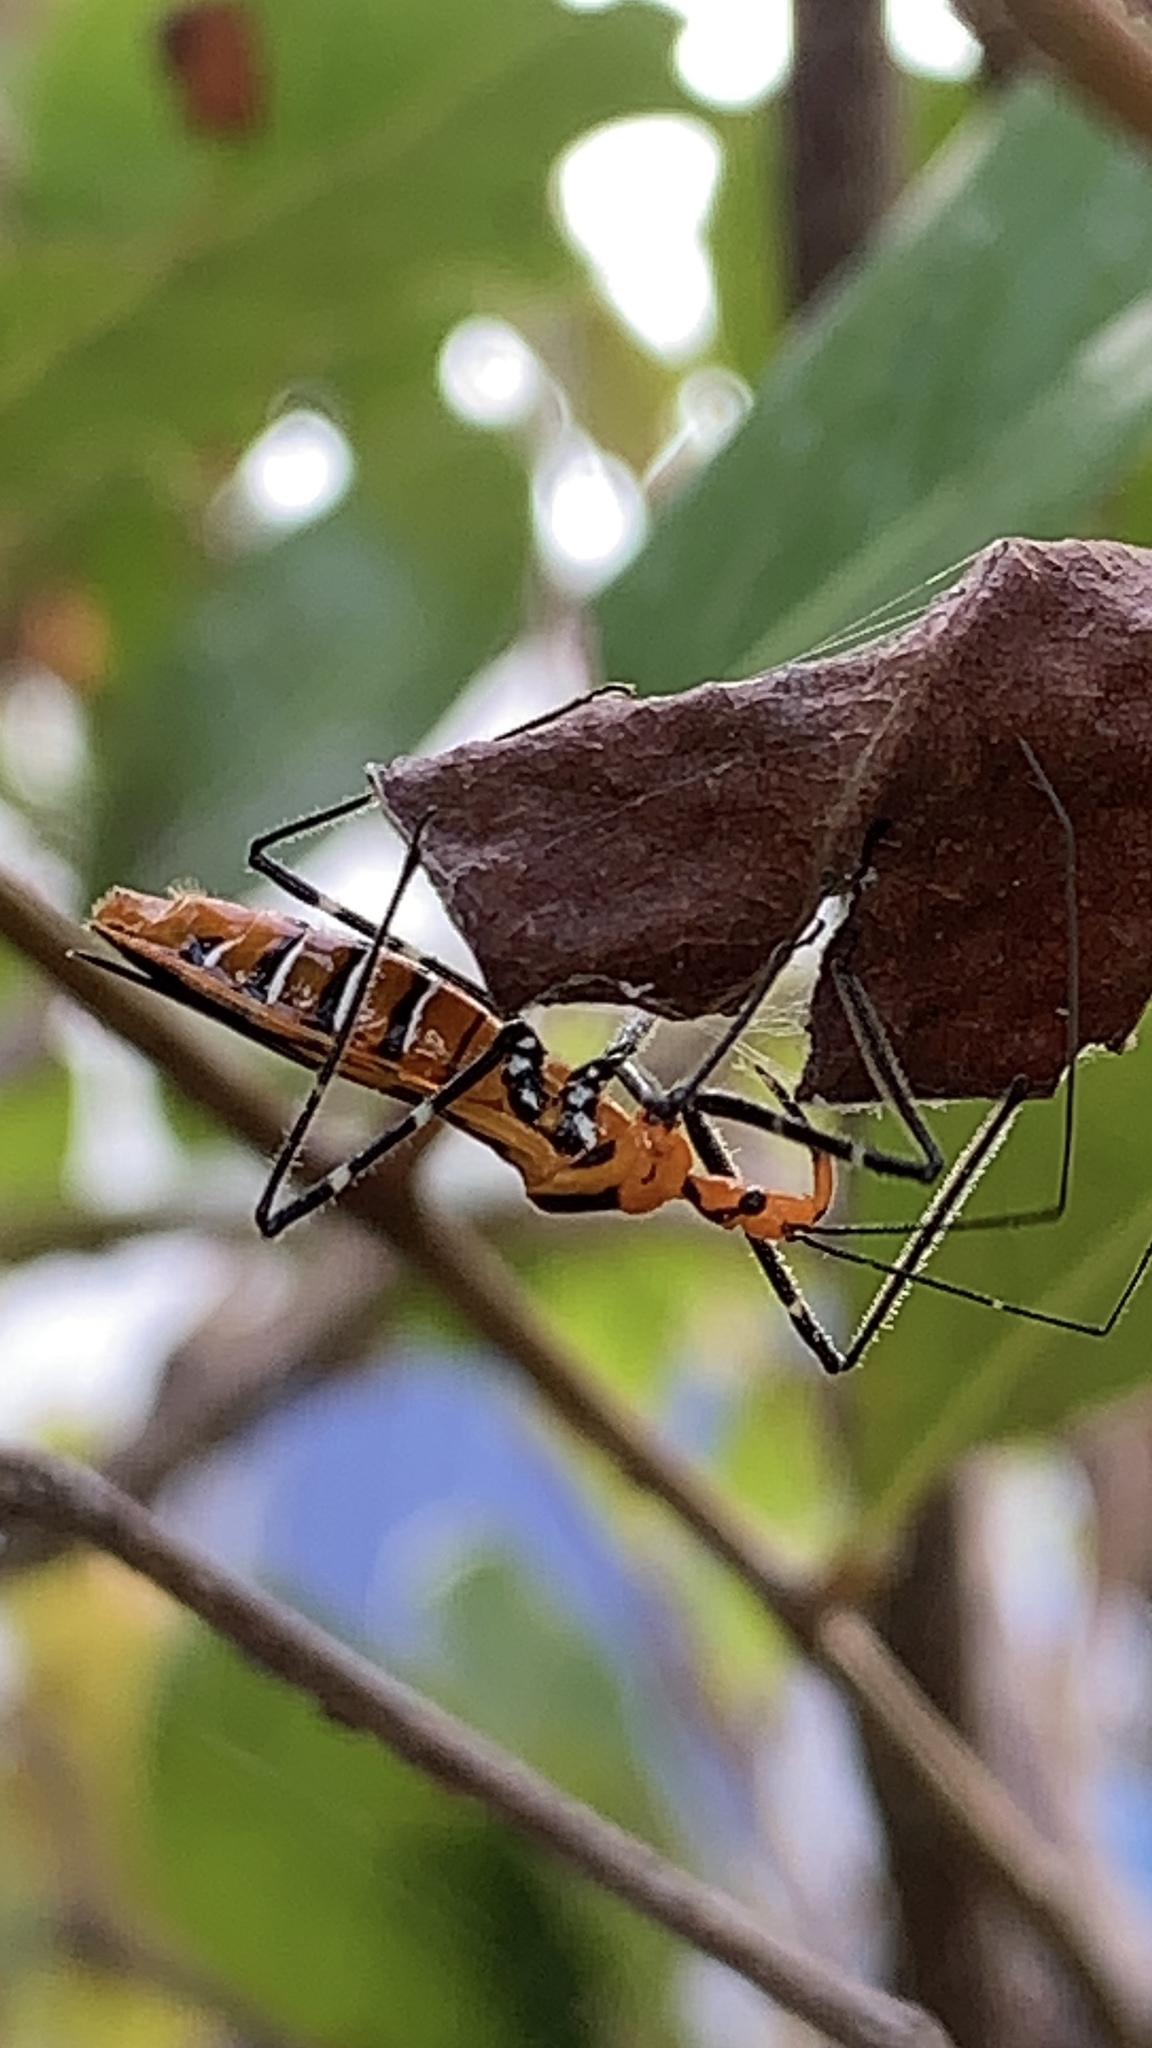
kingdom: Animalia
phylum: Arthropoda
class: Insecta
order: Hemiptera
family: Reduviidae
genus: Zelus
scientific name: Zelus longipes
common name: Milkweed assassin bug
